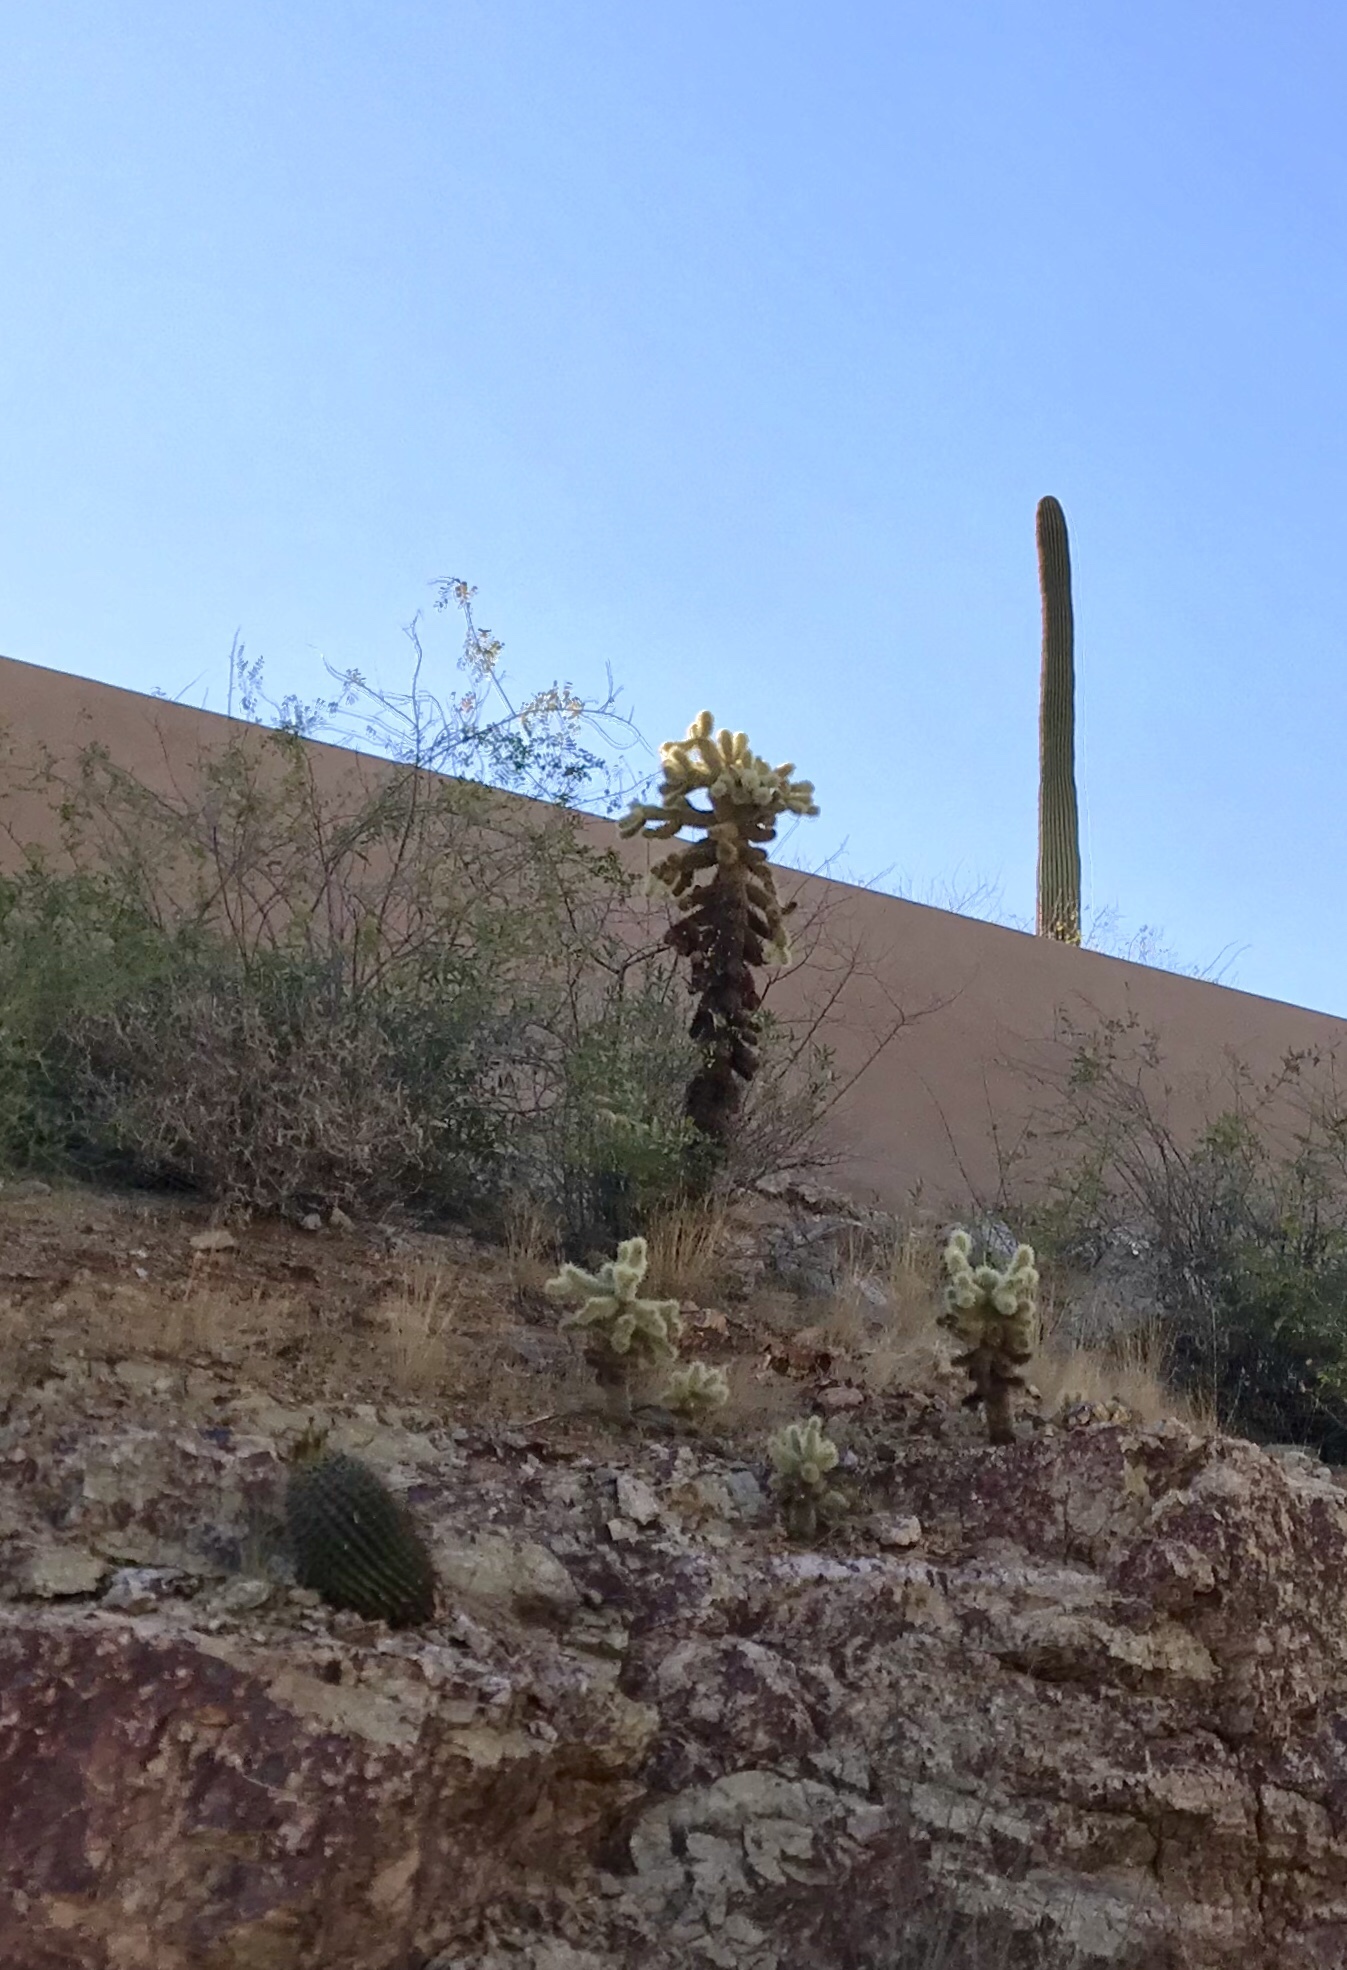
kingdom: Plantae
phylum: Tracheophyta
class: Magnoliopsida
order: Caryophyllales
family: Cactaceae
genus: Cylindropuntia
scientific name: Cylindropuntia fosbergii
